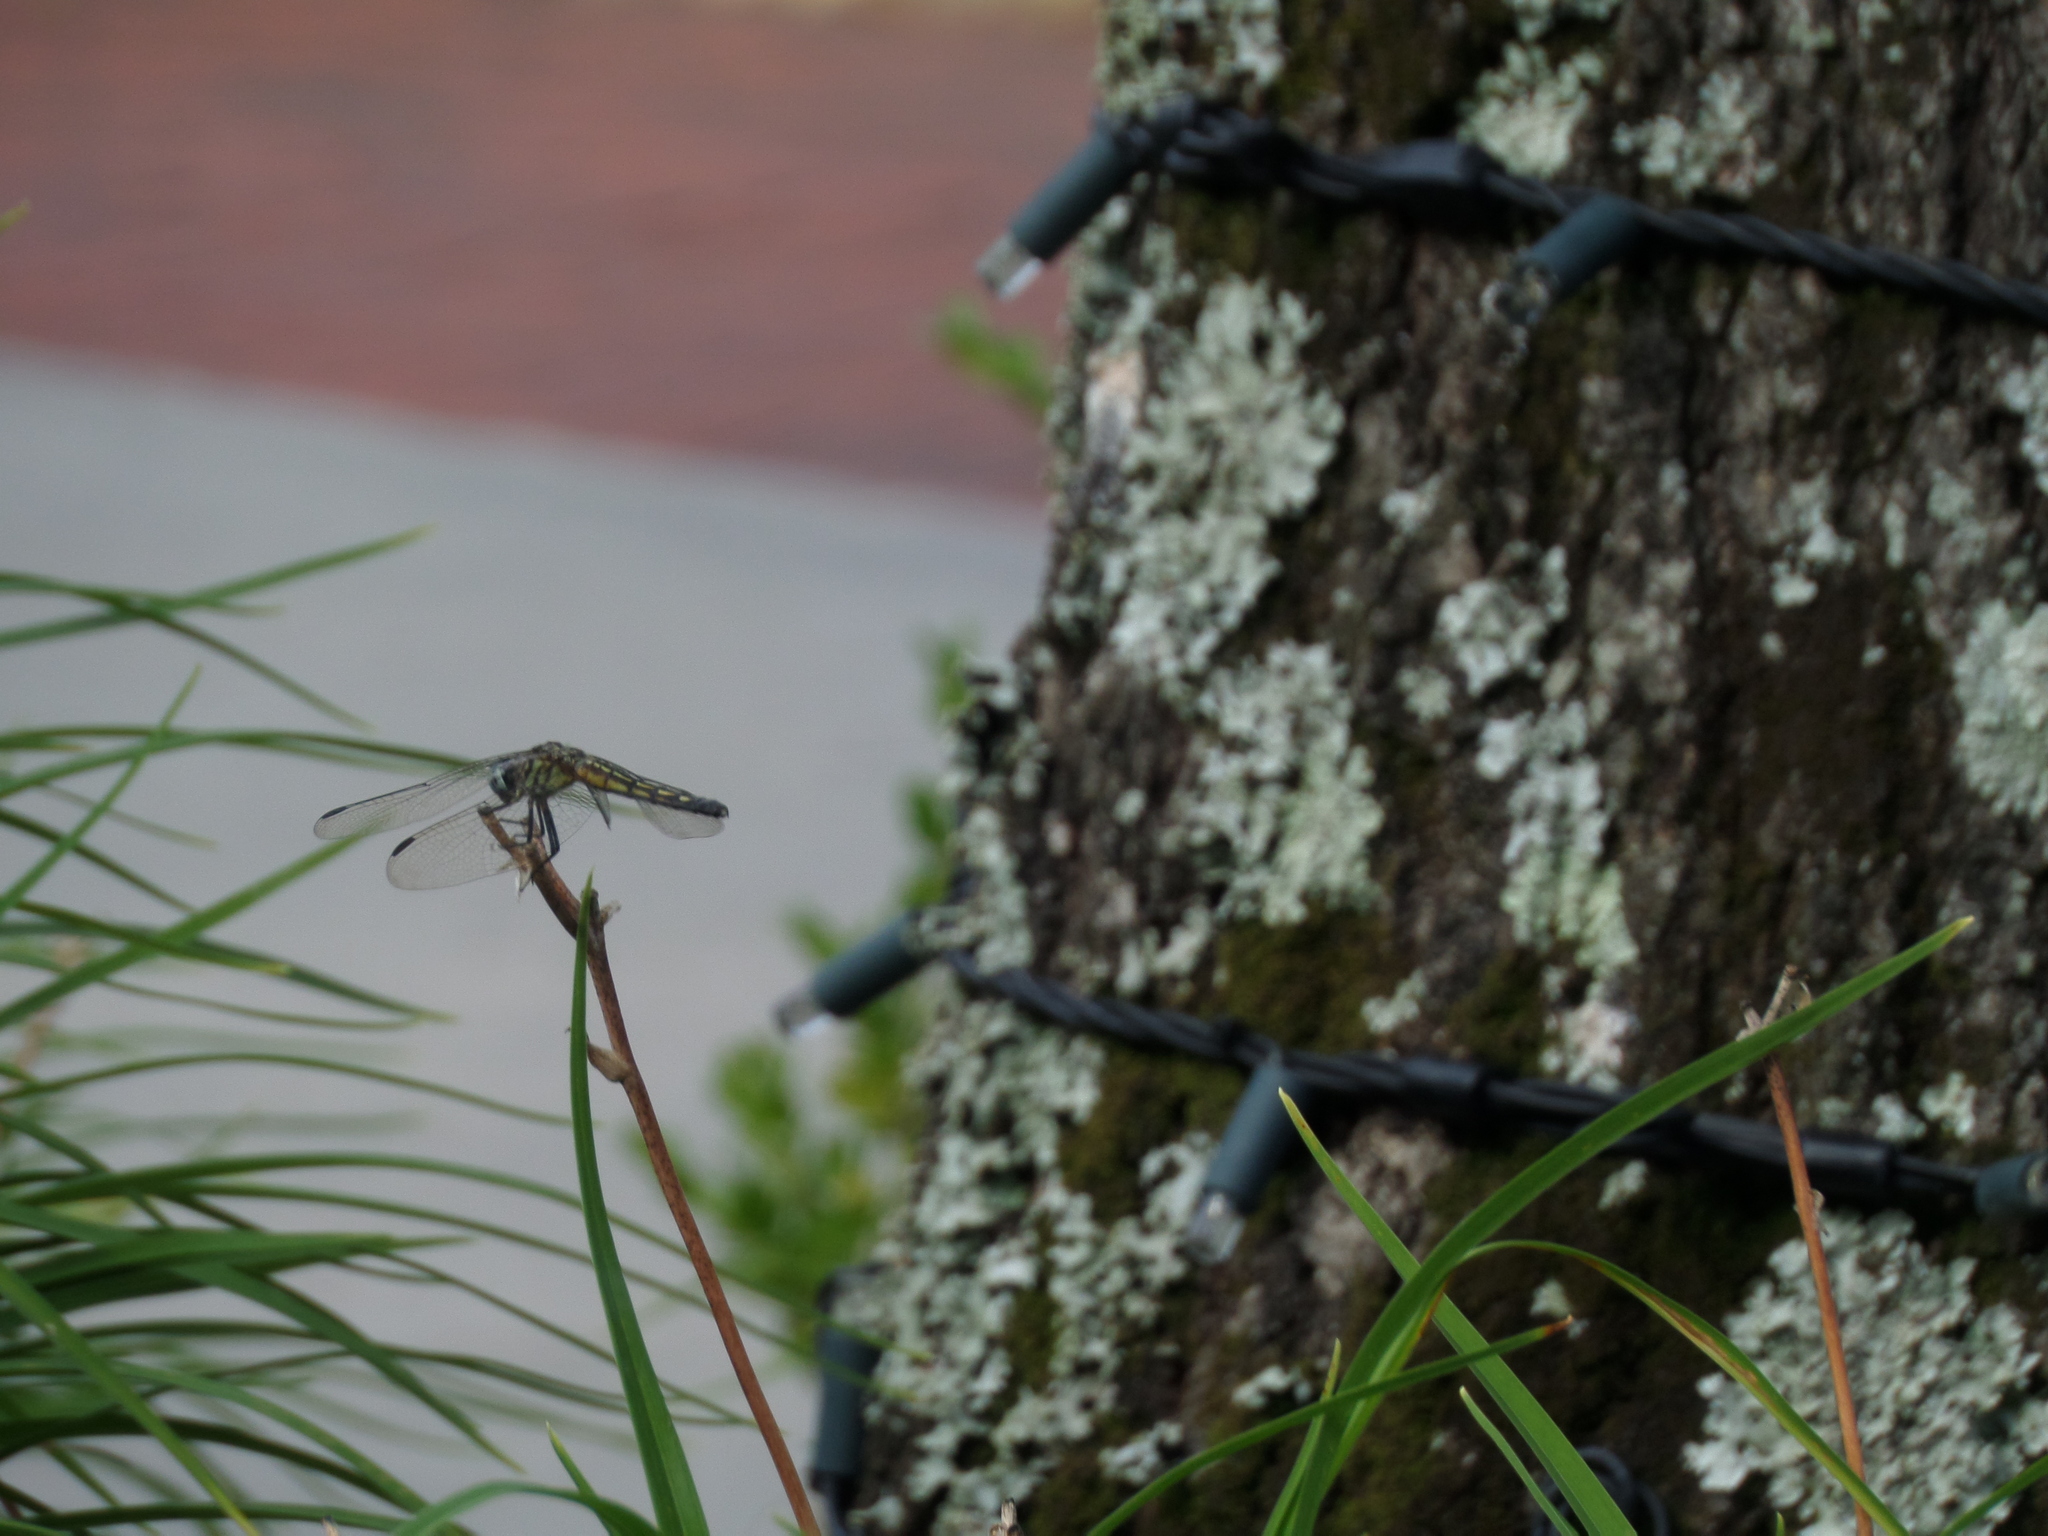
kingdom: Animalia
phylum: Arthropoda
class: Insecta
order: Odonata
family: Libellulidae
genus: Pachydiplax
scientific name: Pachydiplax longipennis
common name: Blue dasher
